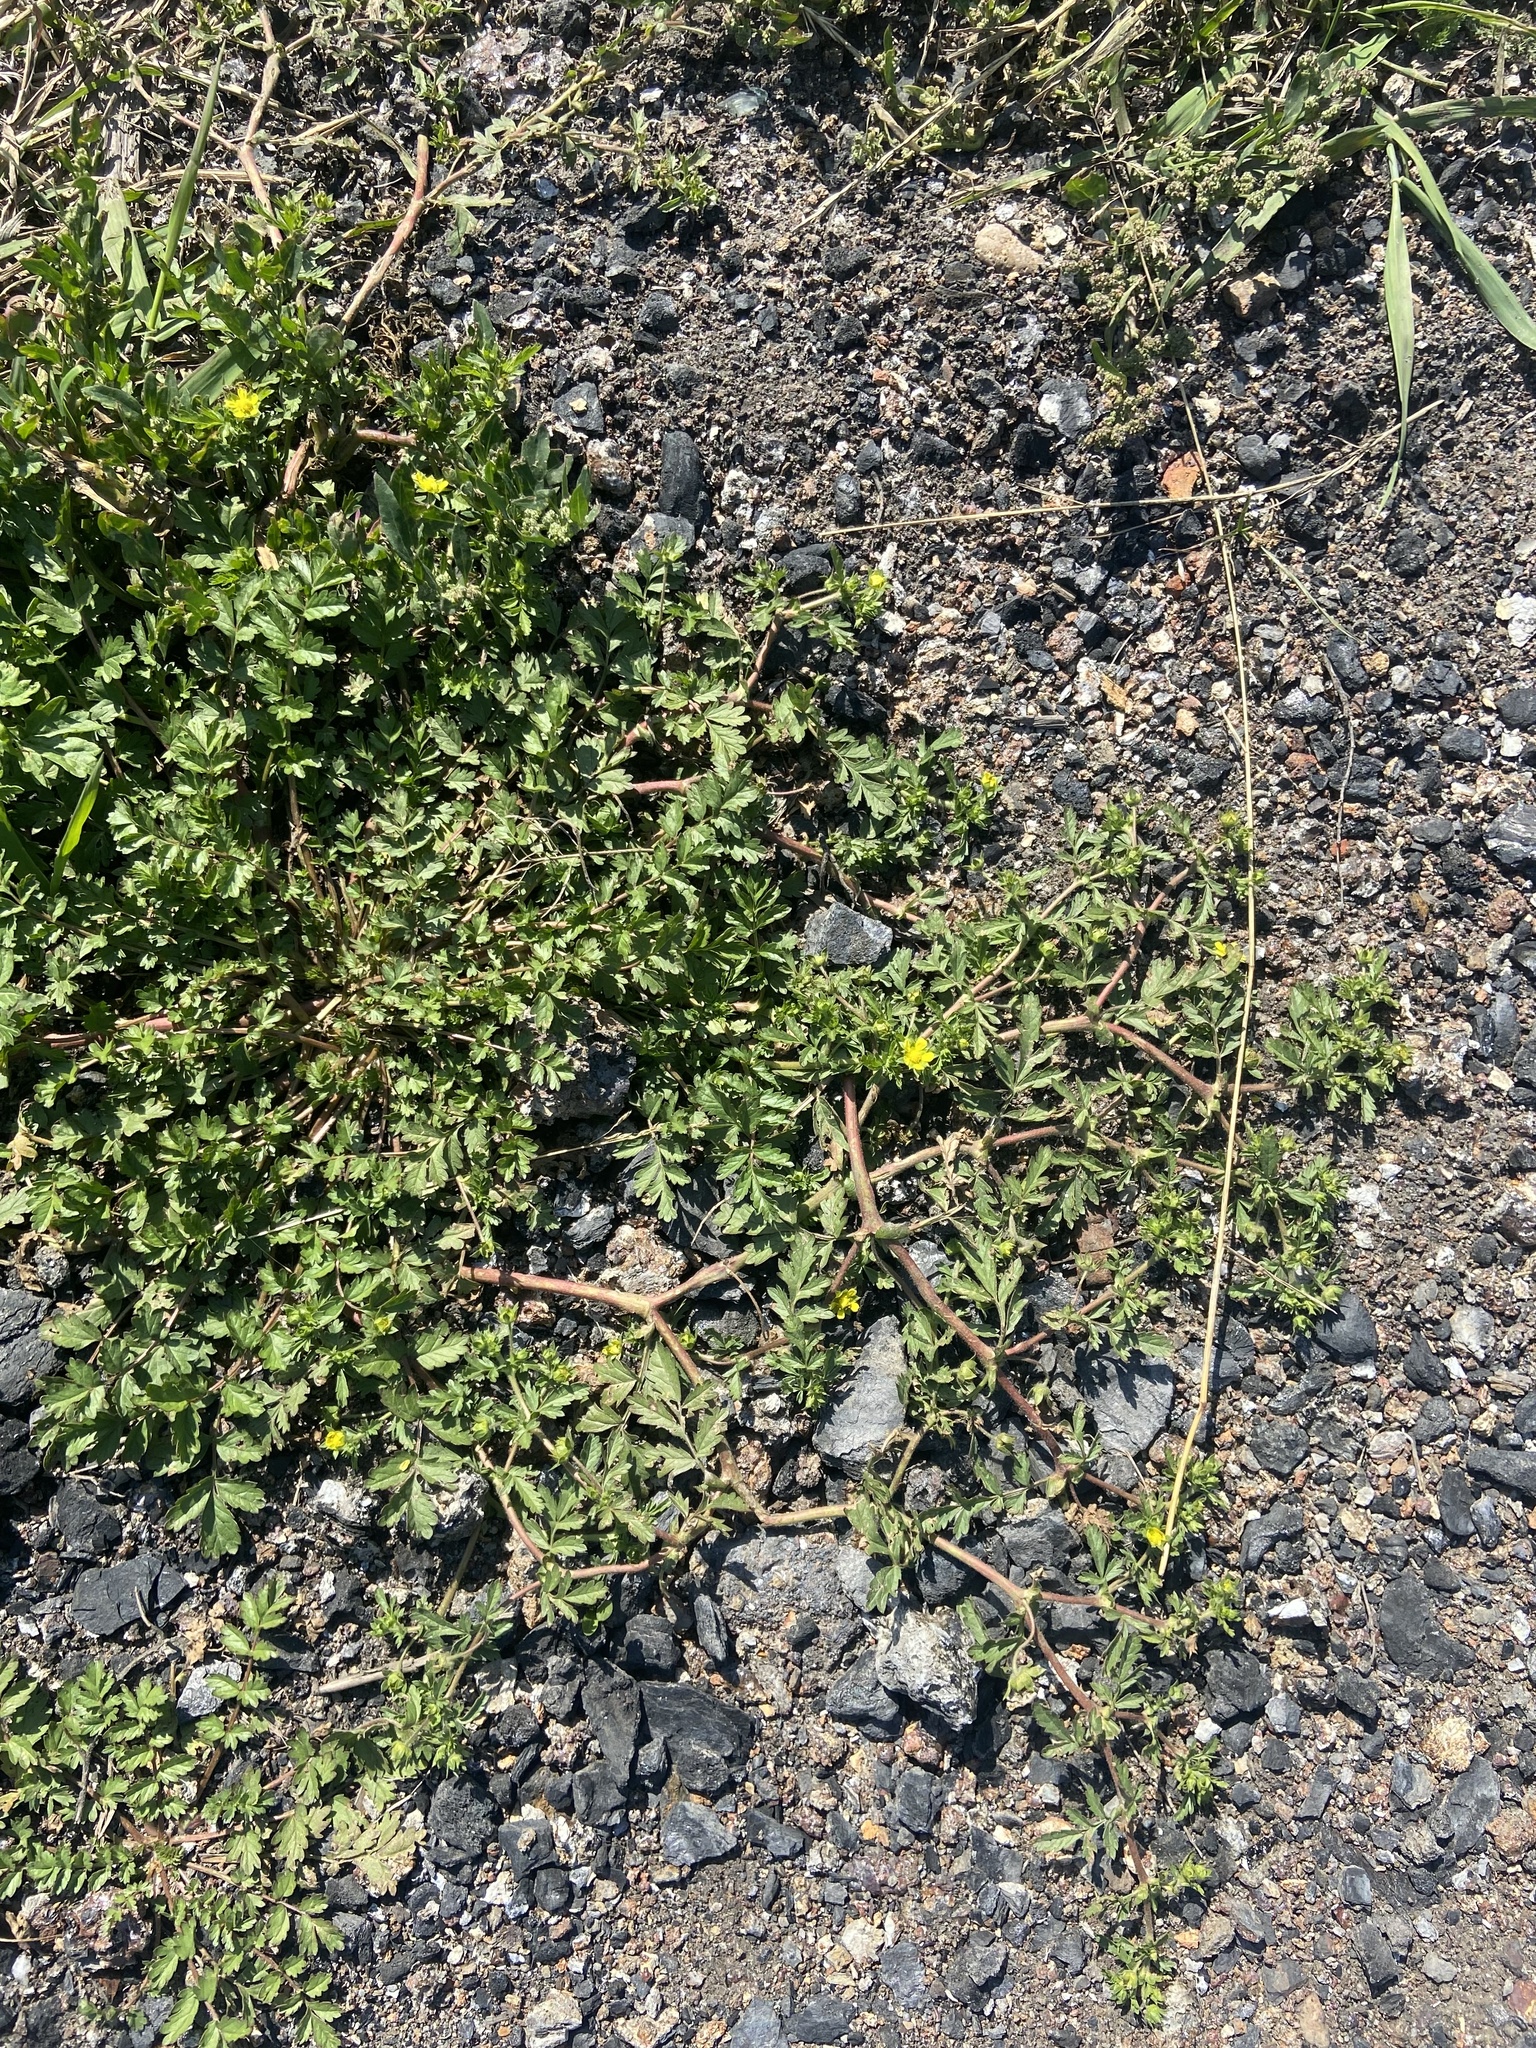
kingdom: Plantae
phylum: Tracheophyta
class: Magnoliopsida
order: Rosales
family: Rosaceae
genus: Potentilla
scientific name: Potentilla supina
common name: Prostrate cinquefoil
